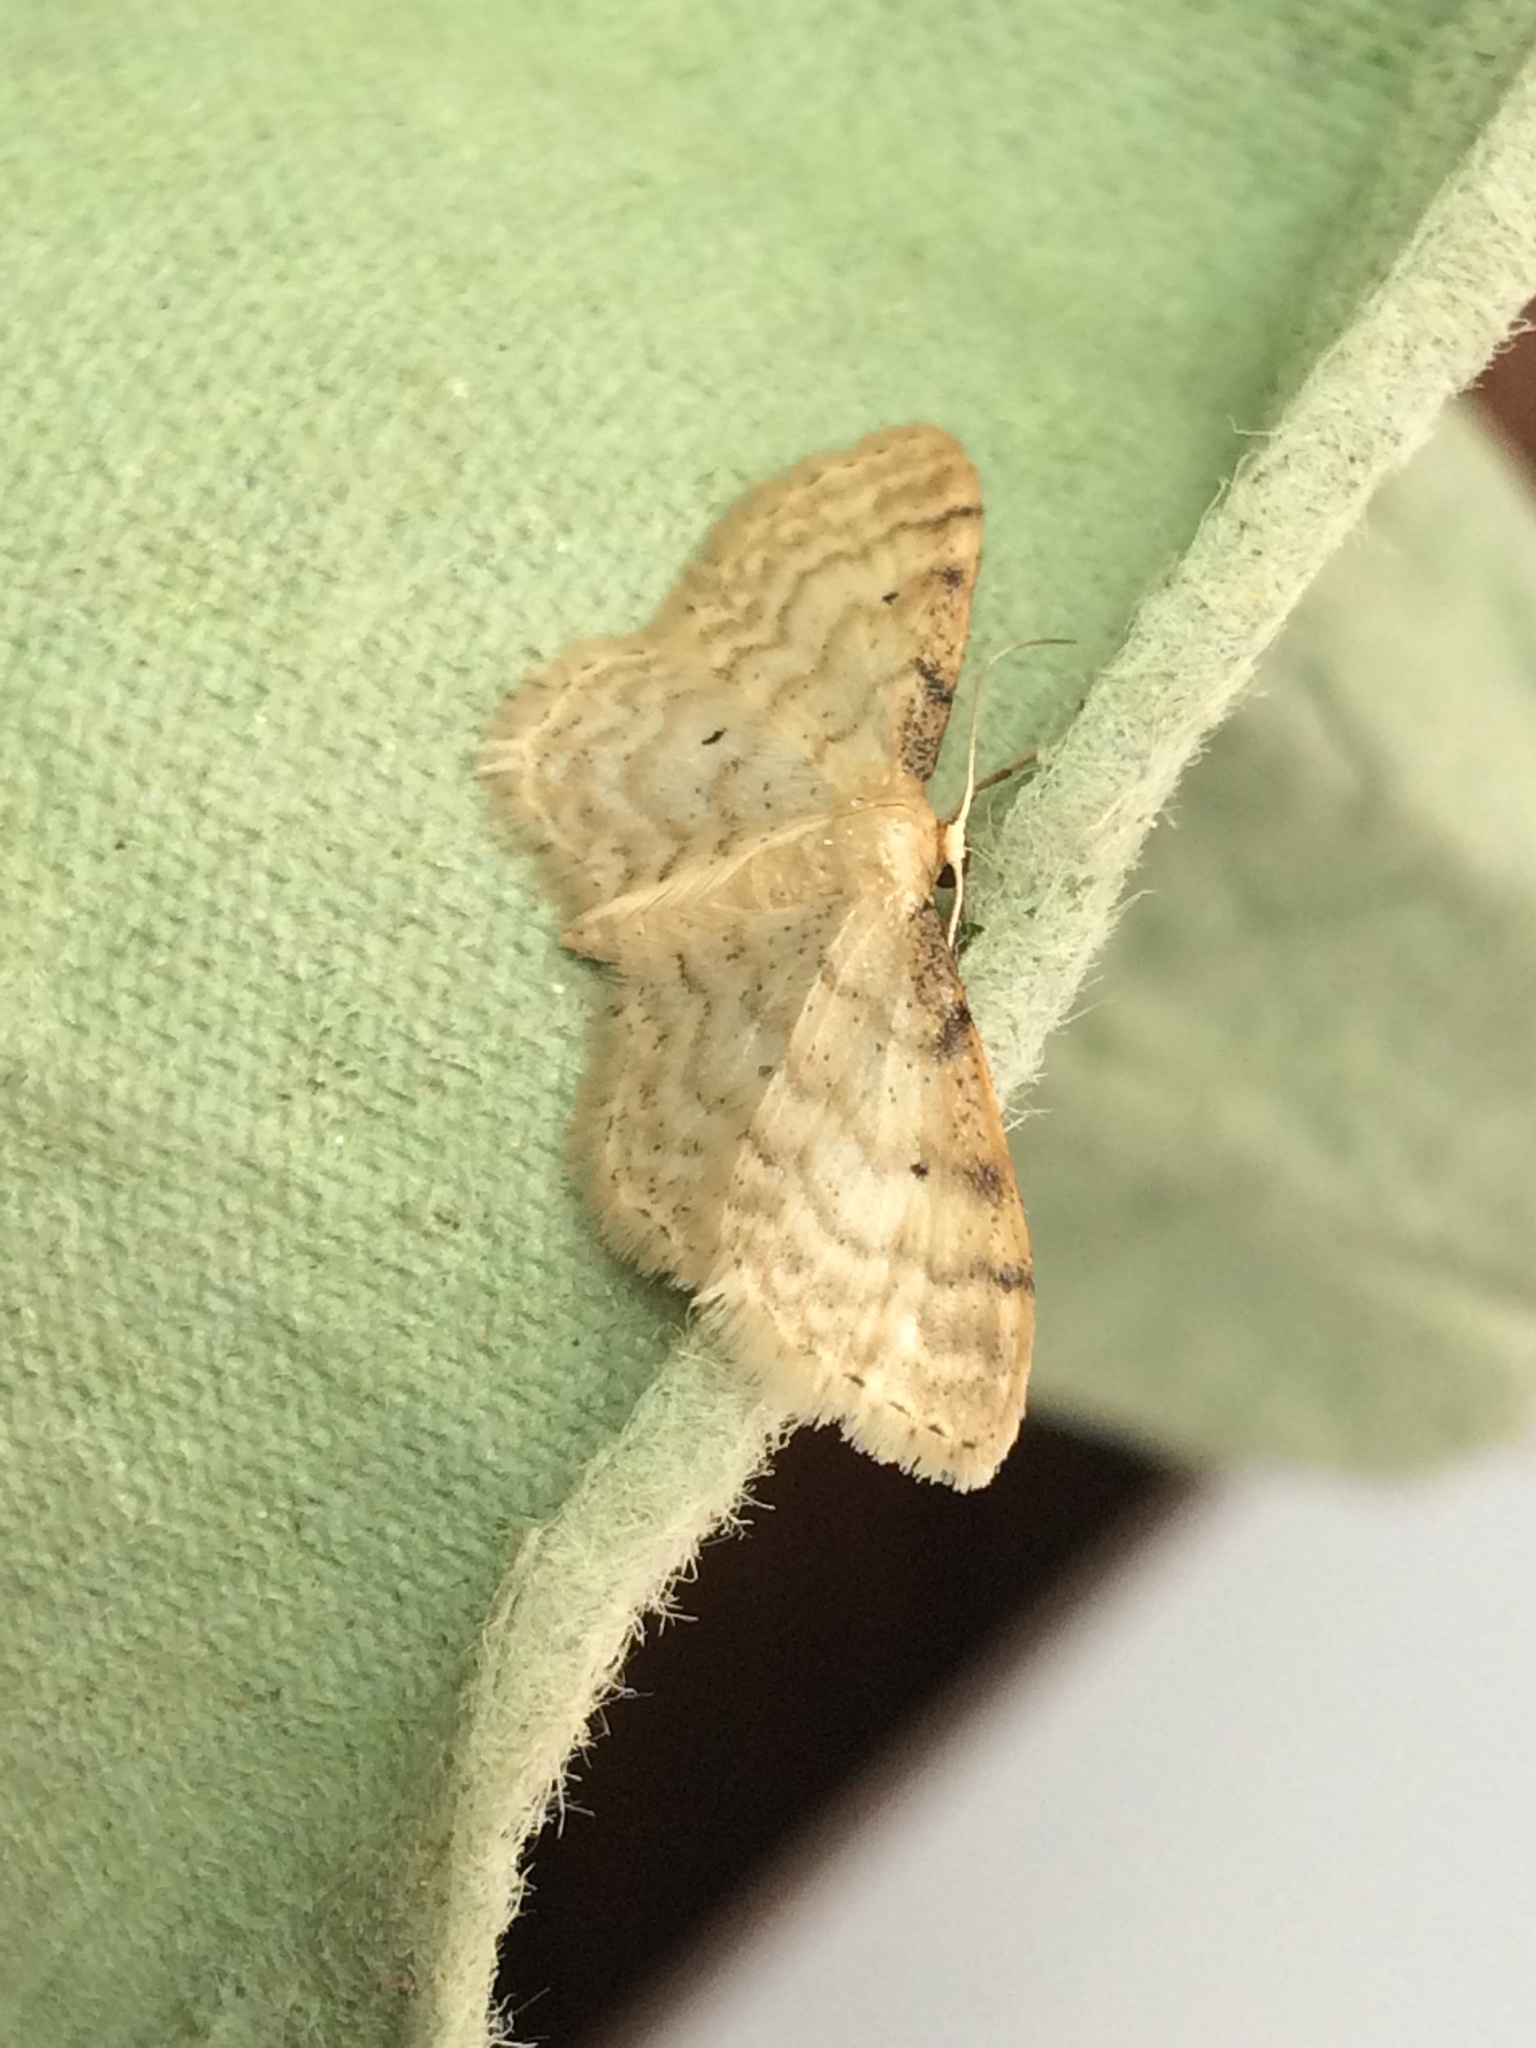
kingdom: Animalia
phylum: Arthropoda
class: Insecta
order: Lepidoptera
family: Geometridae
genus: Idaea
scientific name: Idaea fuscovenosa
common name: Dwarf cream wave
